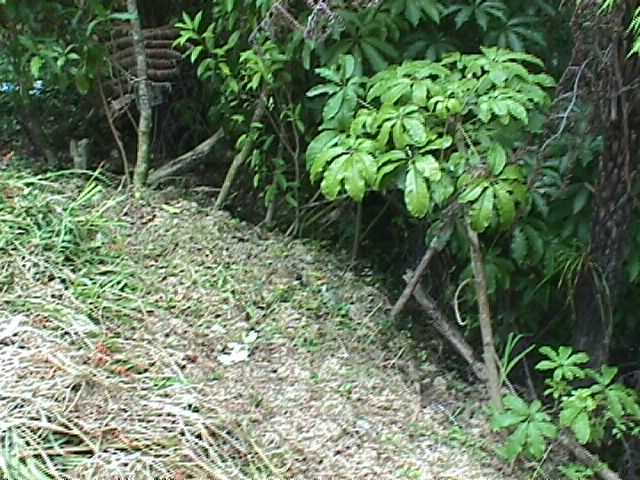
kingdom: Plantae
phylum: Tracheophyta
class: Magnoliopsida
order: Apiales
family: Araliaceae
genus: Schefflera
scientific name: Schefflera digitata
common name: Pate
